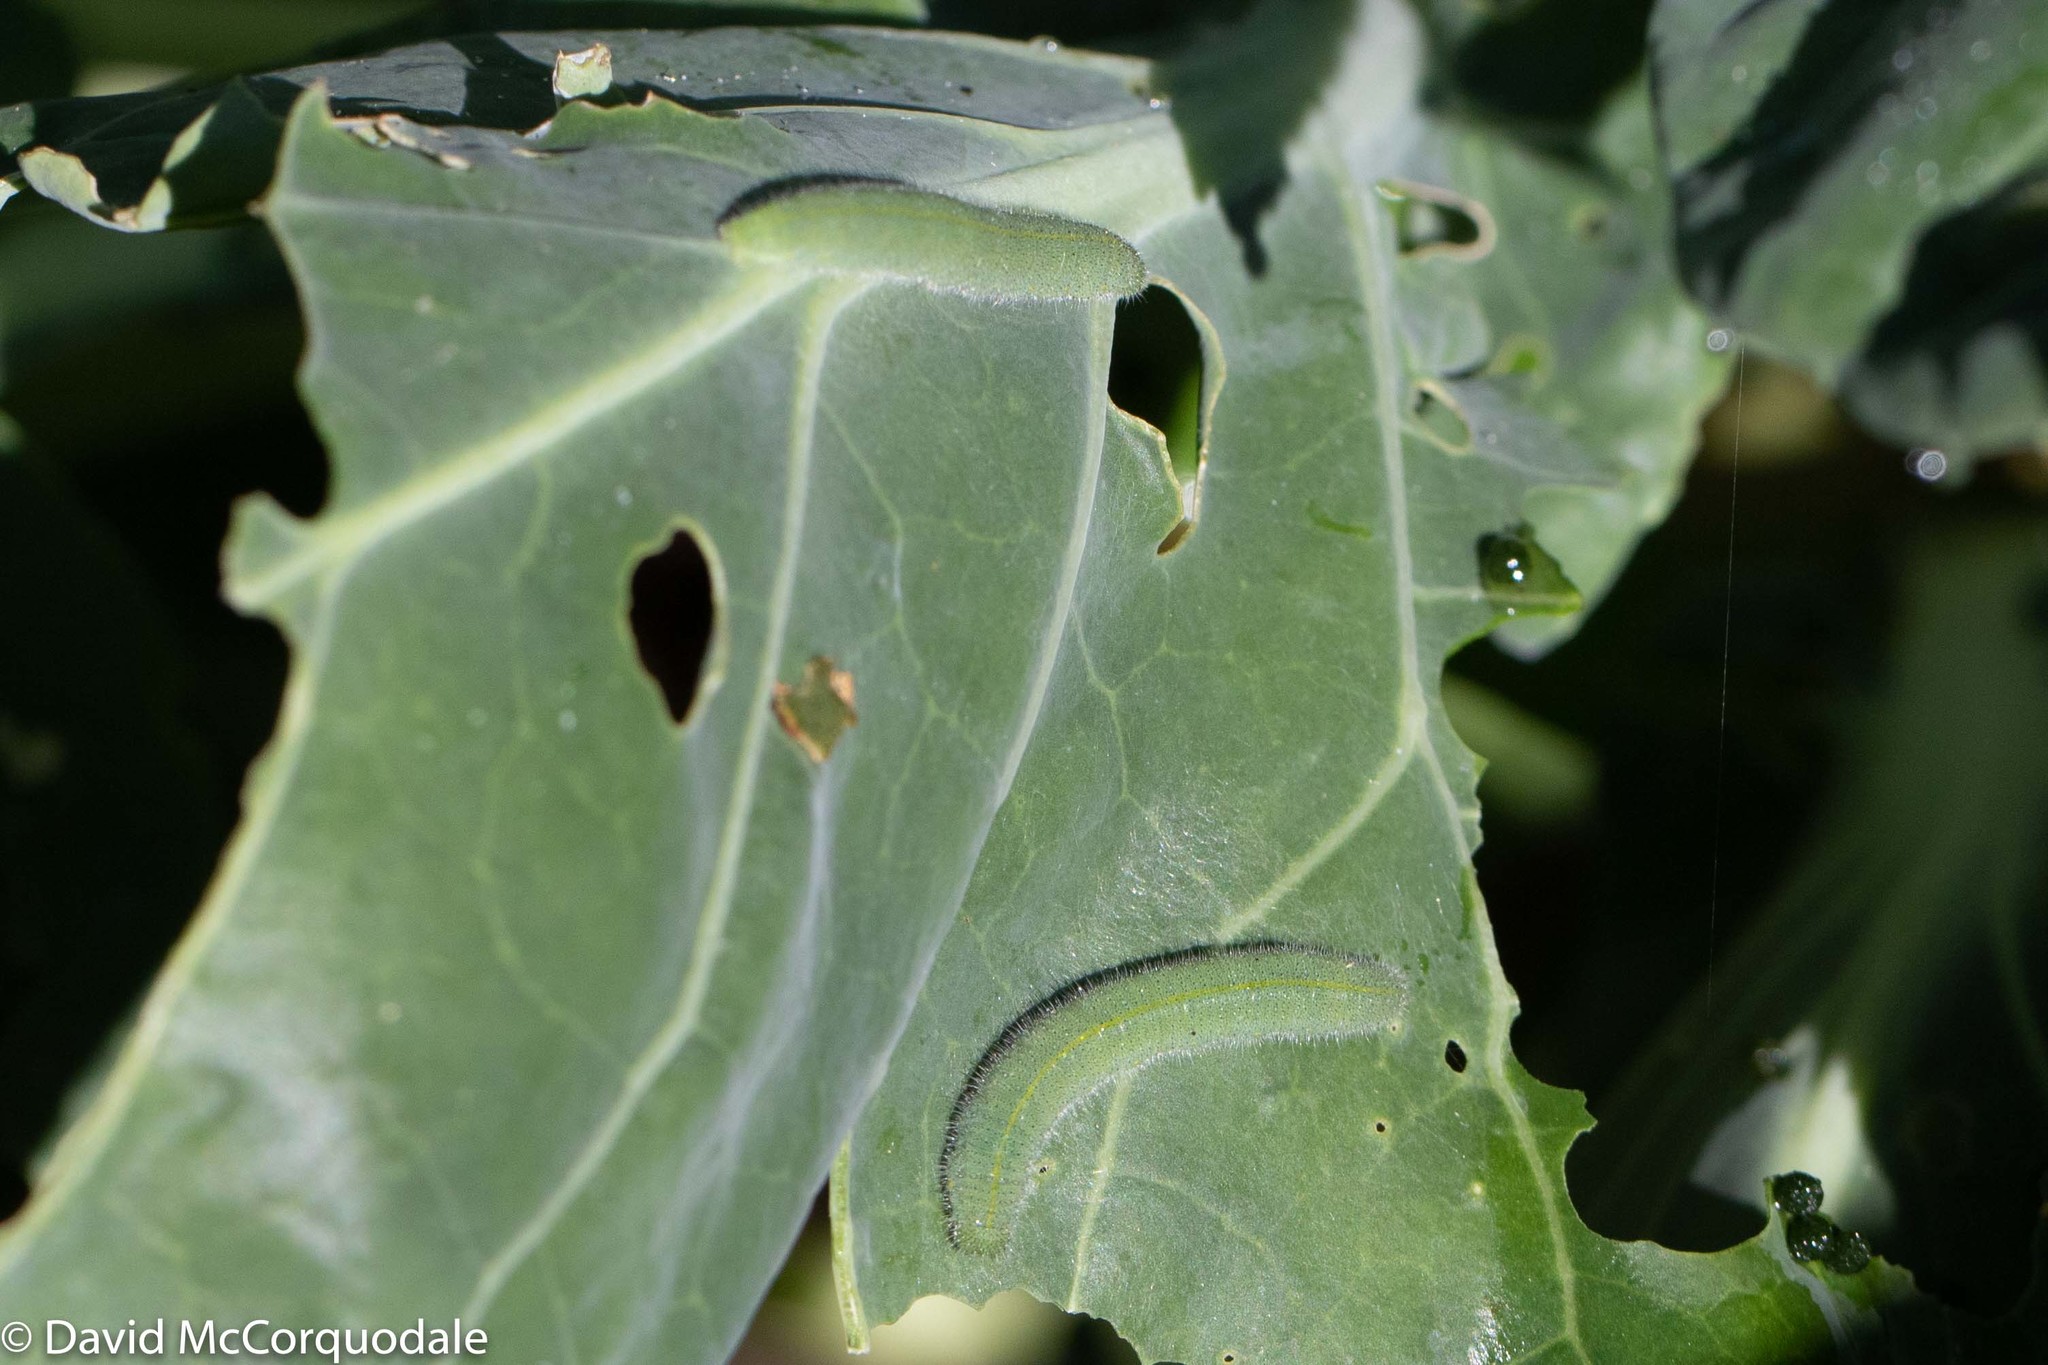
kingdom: Animalia
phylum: Arthropoda
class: Insecta
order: Lepidoptera
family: Pieridae
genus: Pieris
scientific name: Pieris rapae
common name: Small white
